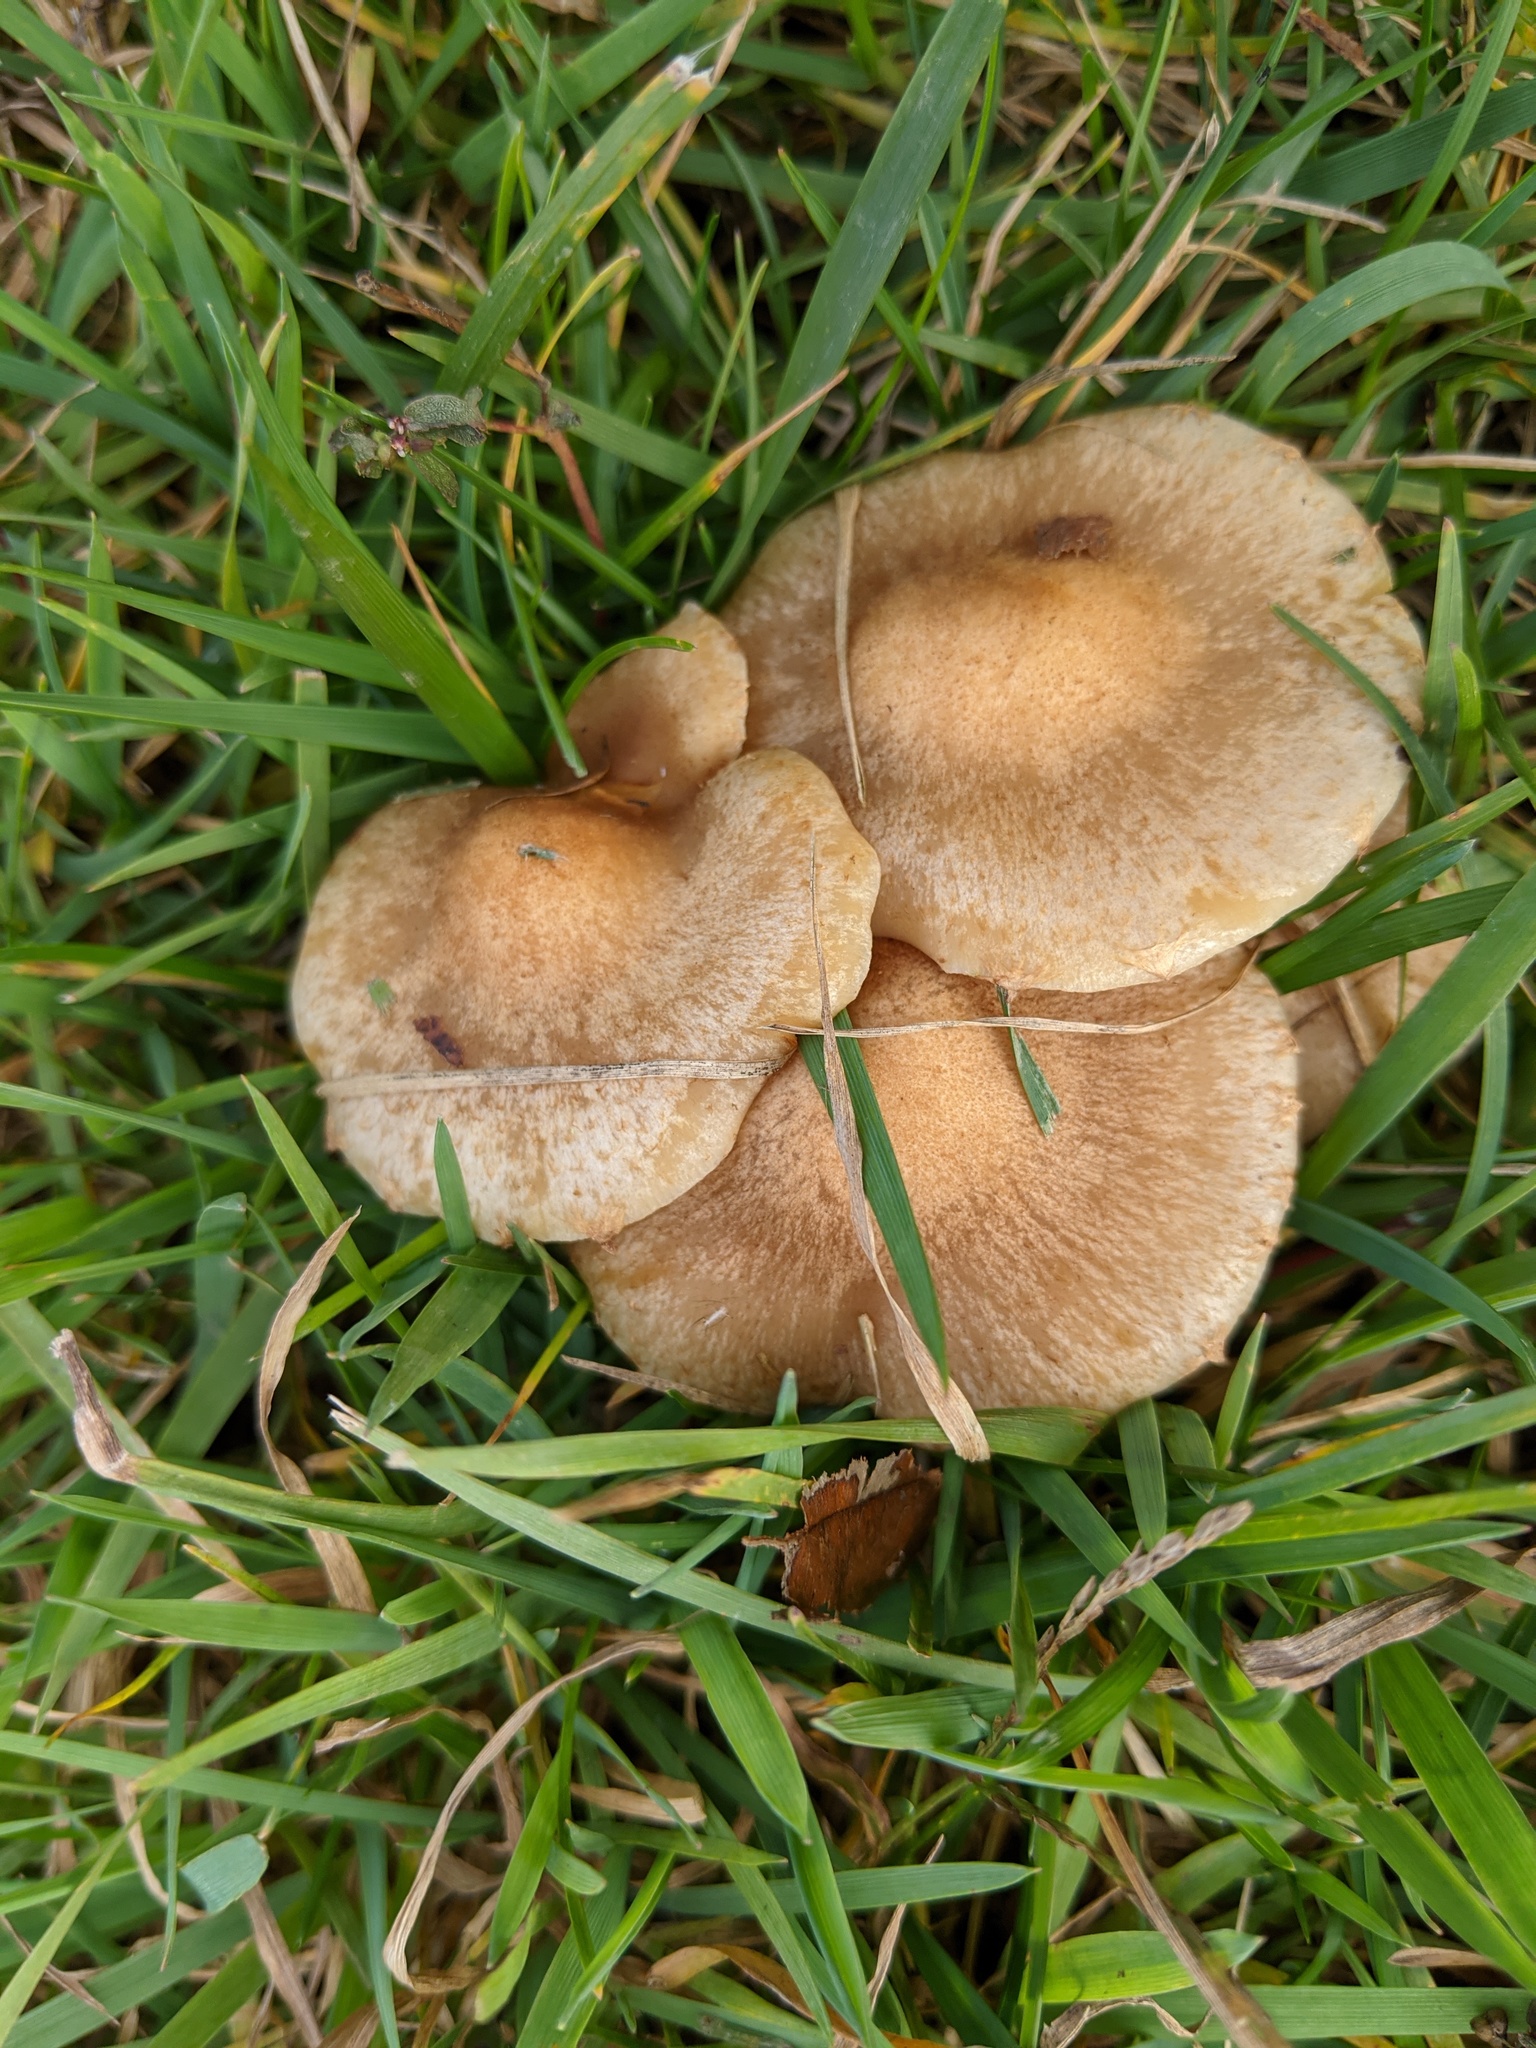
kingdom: Fungi
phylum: Basidiomycota
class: Agaricomycetes
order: Agaricales
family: Physalacriaceae
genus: Desarmillaria
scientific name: Desarmillaria caespitosa
